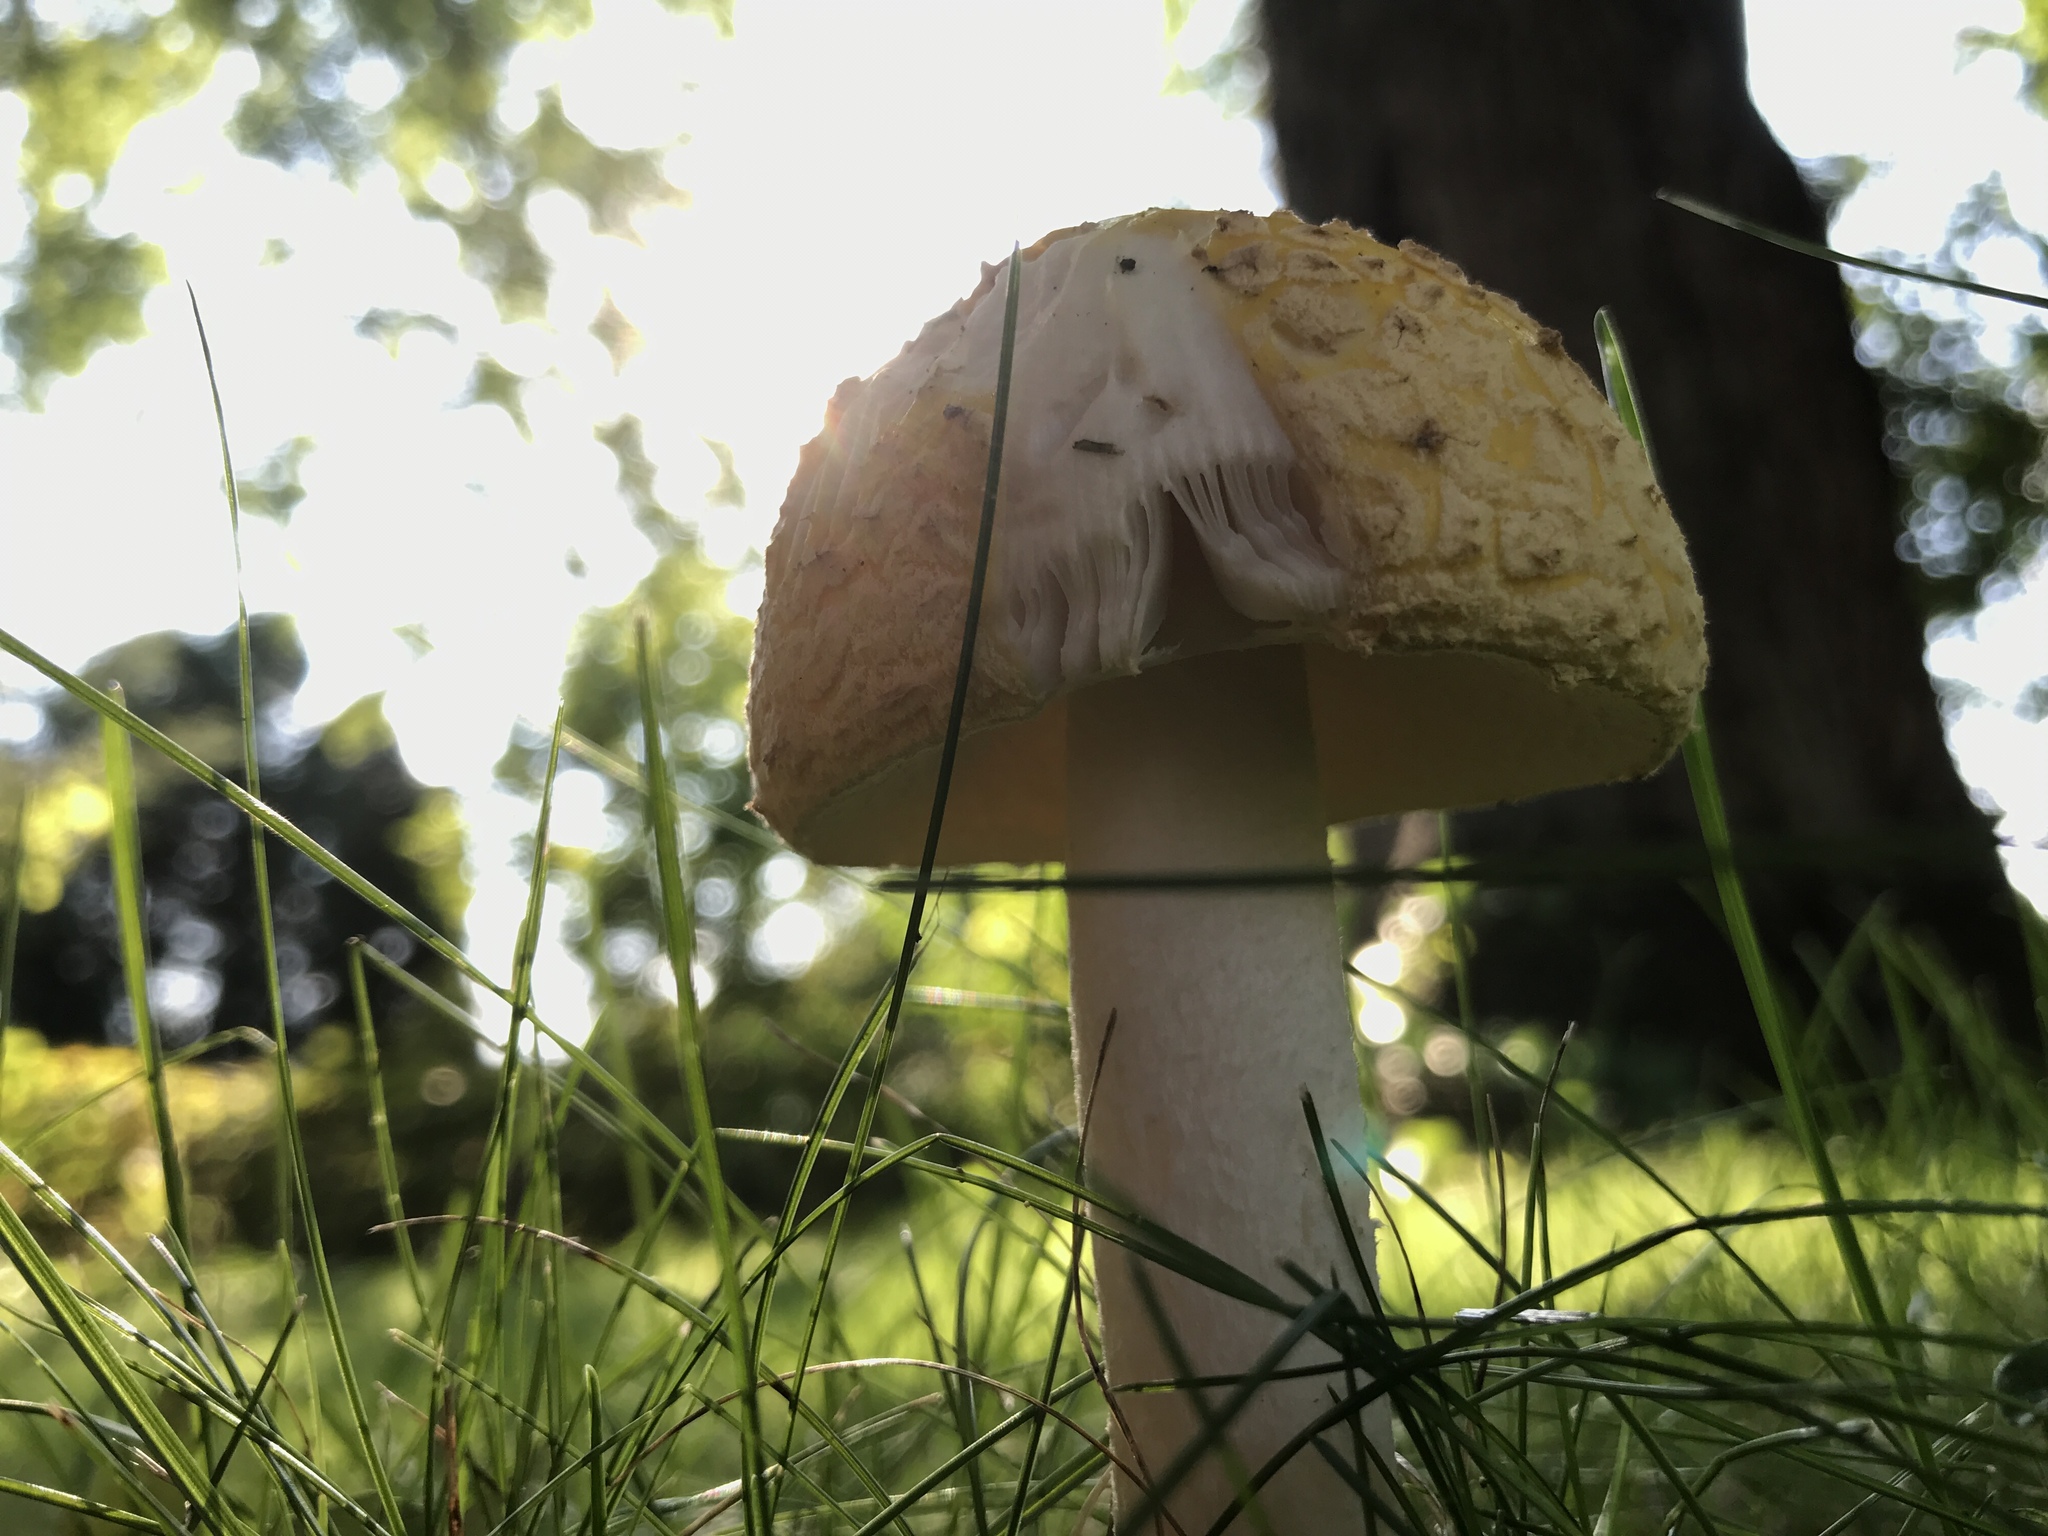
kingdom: Fungi
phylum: Basidiomycota
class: Agaricomycetes
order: Agaricales
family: Amanitaceae
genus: Amanita
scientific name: Amanita muscaria
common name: Fly agaric
